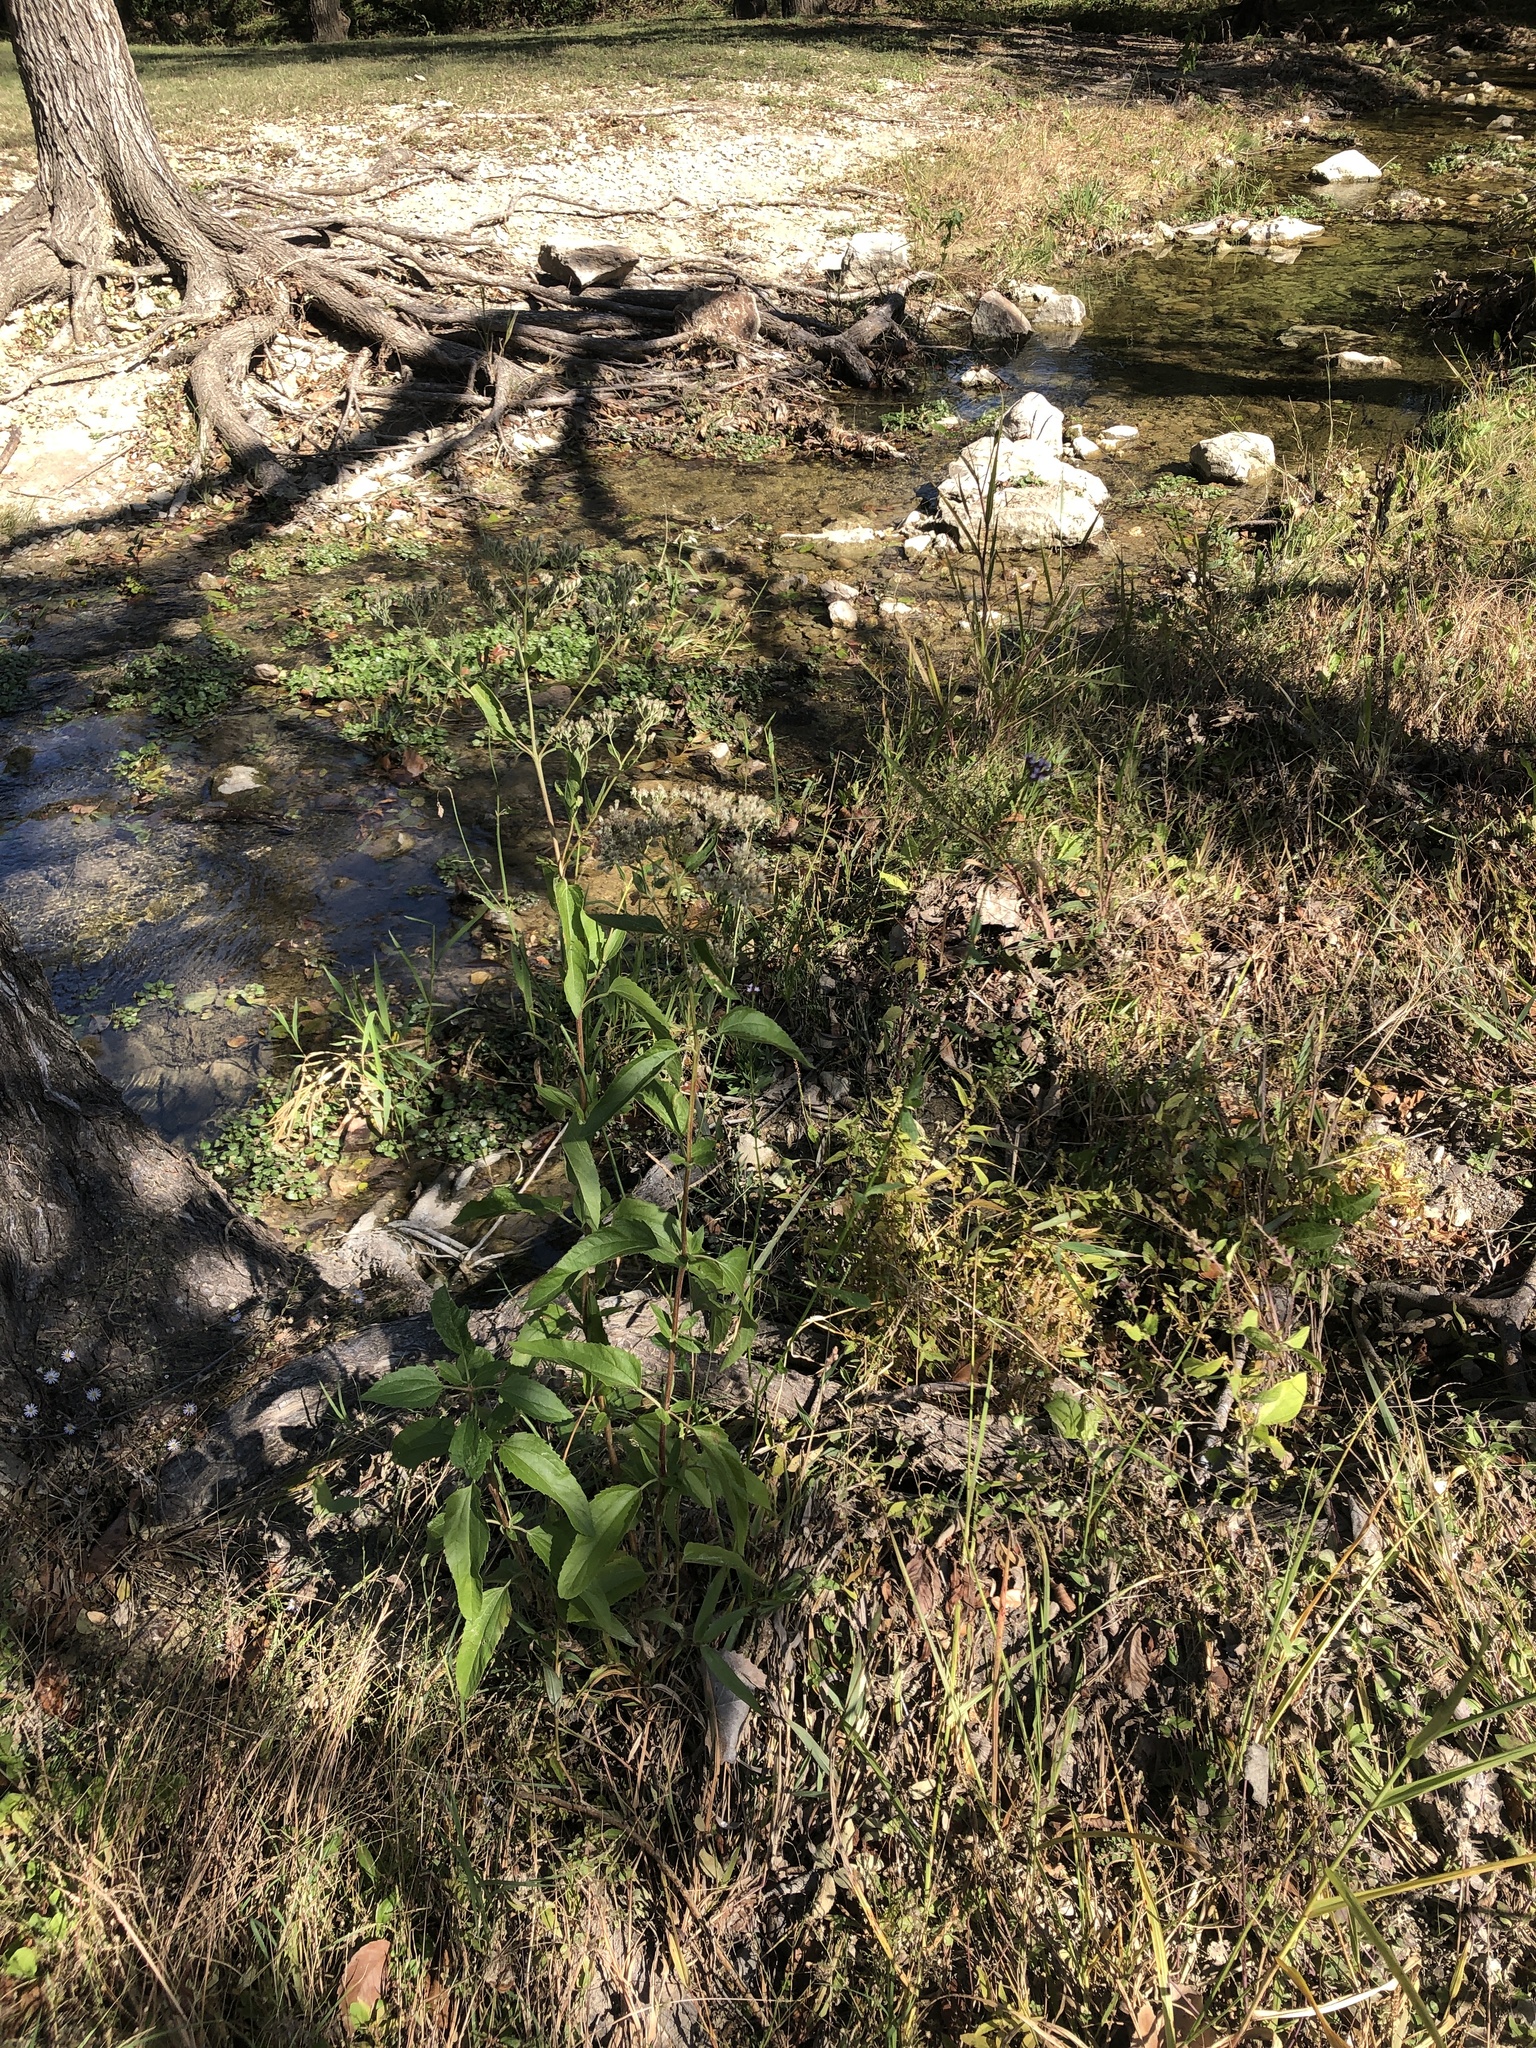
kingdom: Plantae
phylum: Tracheophyta
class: Magnoliopsida
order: Lamiales
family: Verbenaceae
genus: Verbena
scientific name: Verbena brasiliensis
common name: Brazilian vervain
